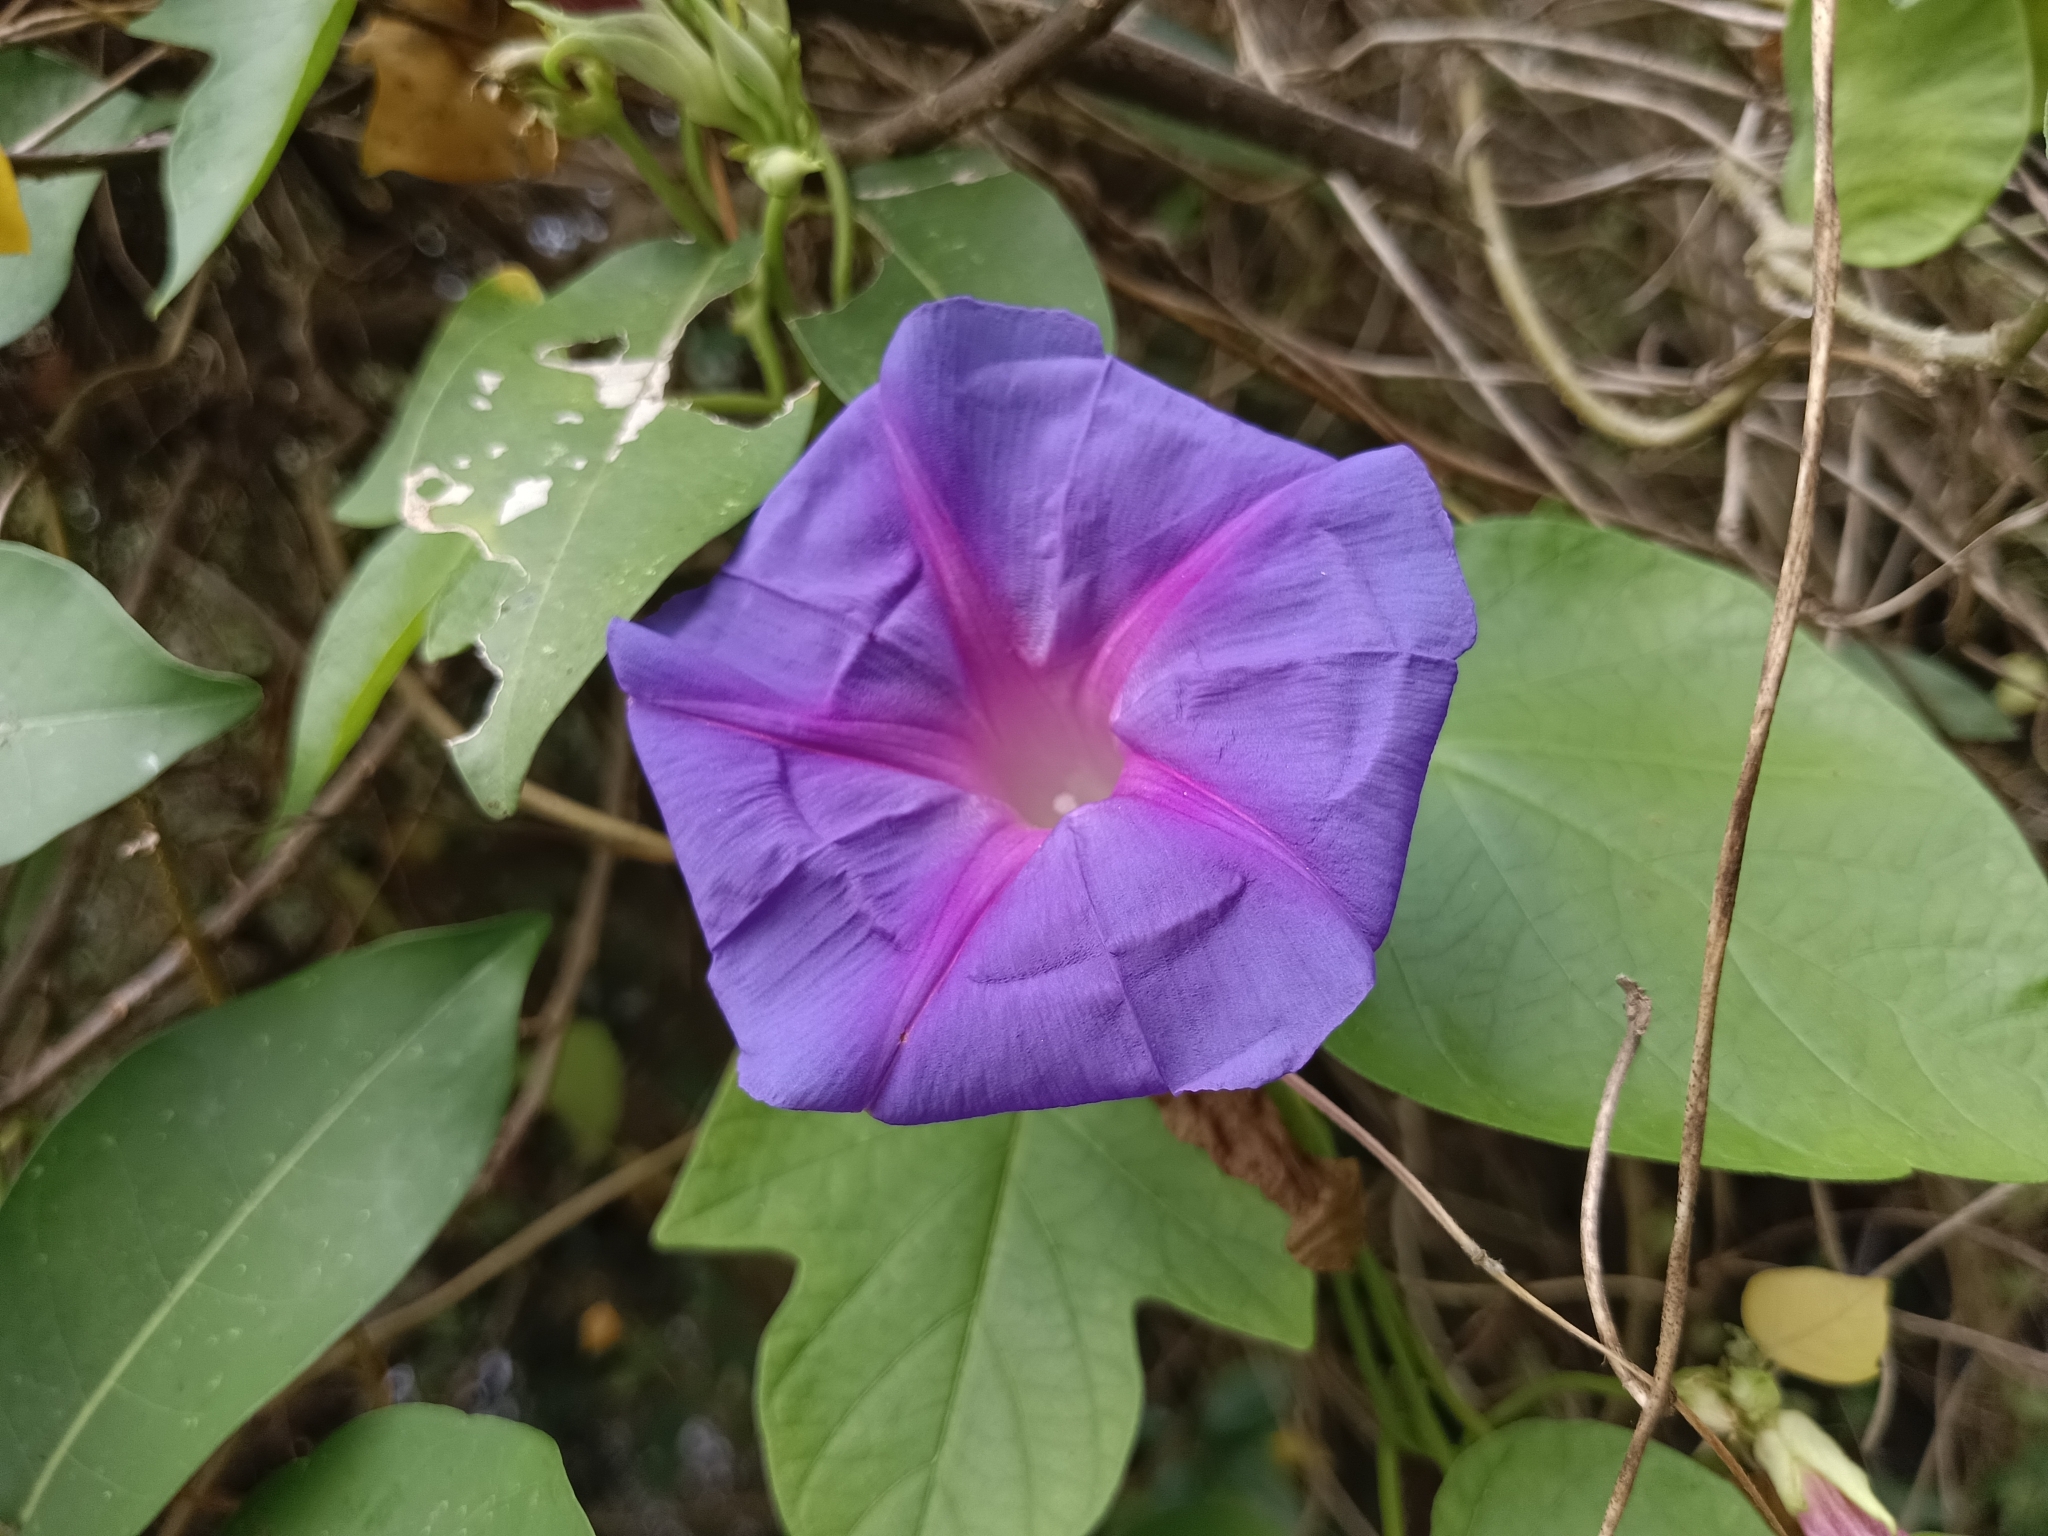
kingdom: Plantae
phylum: Tracheophyta
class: Magnoliopsida
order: Solanales
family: Convolvulaceae
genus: Ipomoea
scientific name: Ipomoea indica
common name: Blue dawnflower
